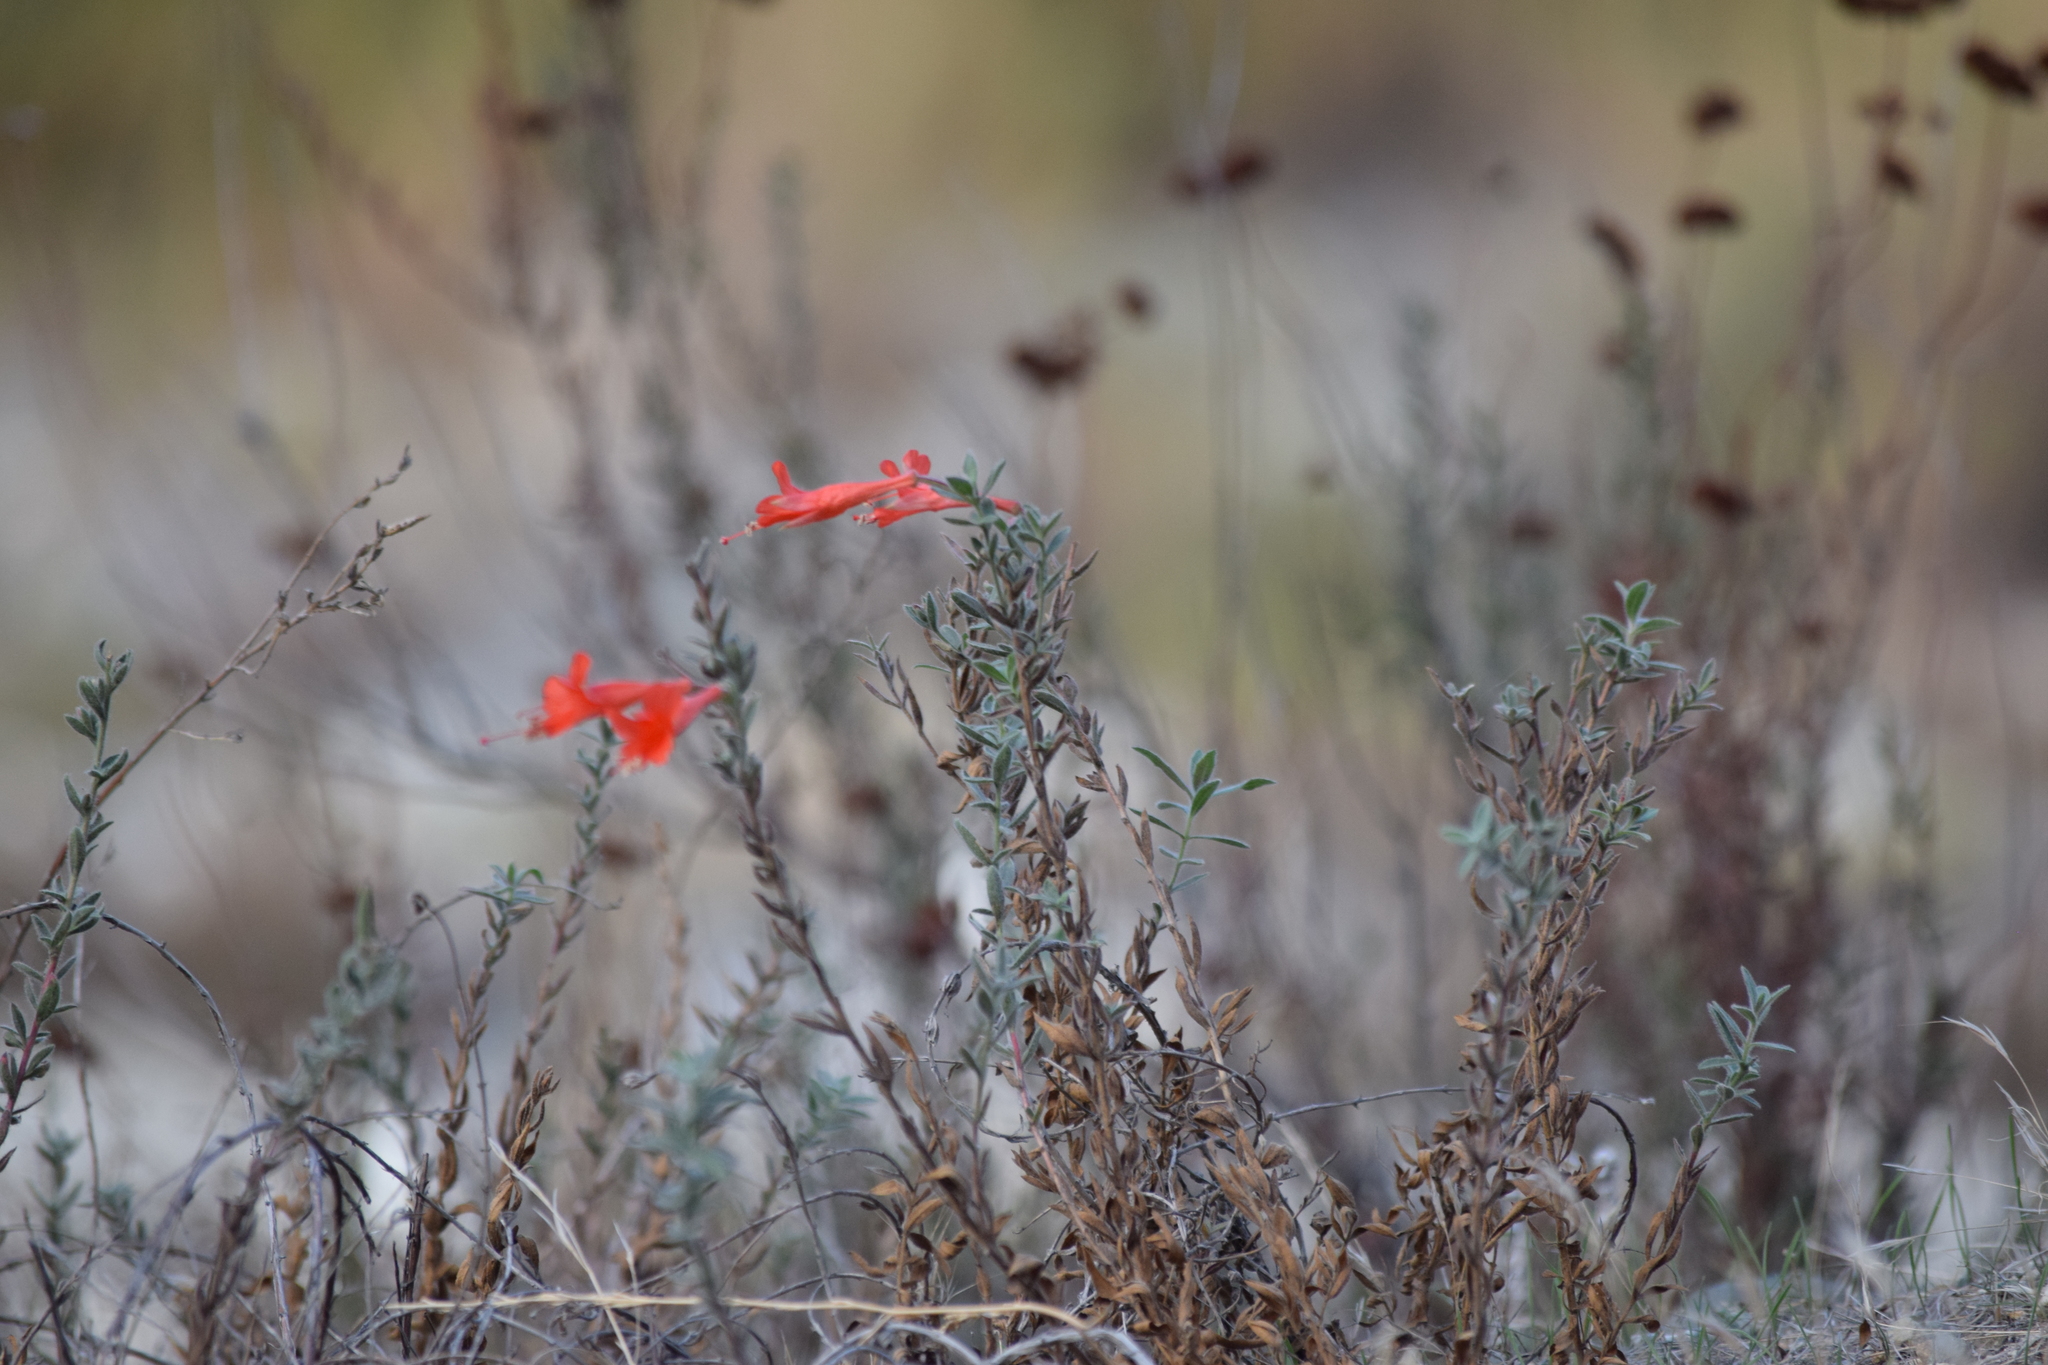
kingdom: Plantae
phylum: Tracheophyta
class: Magnoliopsida
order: Myrtales
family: Onagraceae
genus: Epilobium
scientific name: Epilobium canum
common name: California-fuchsia
